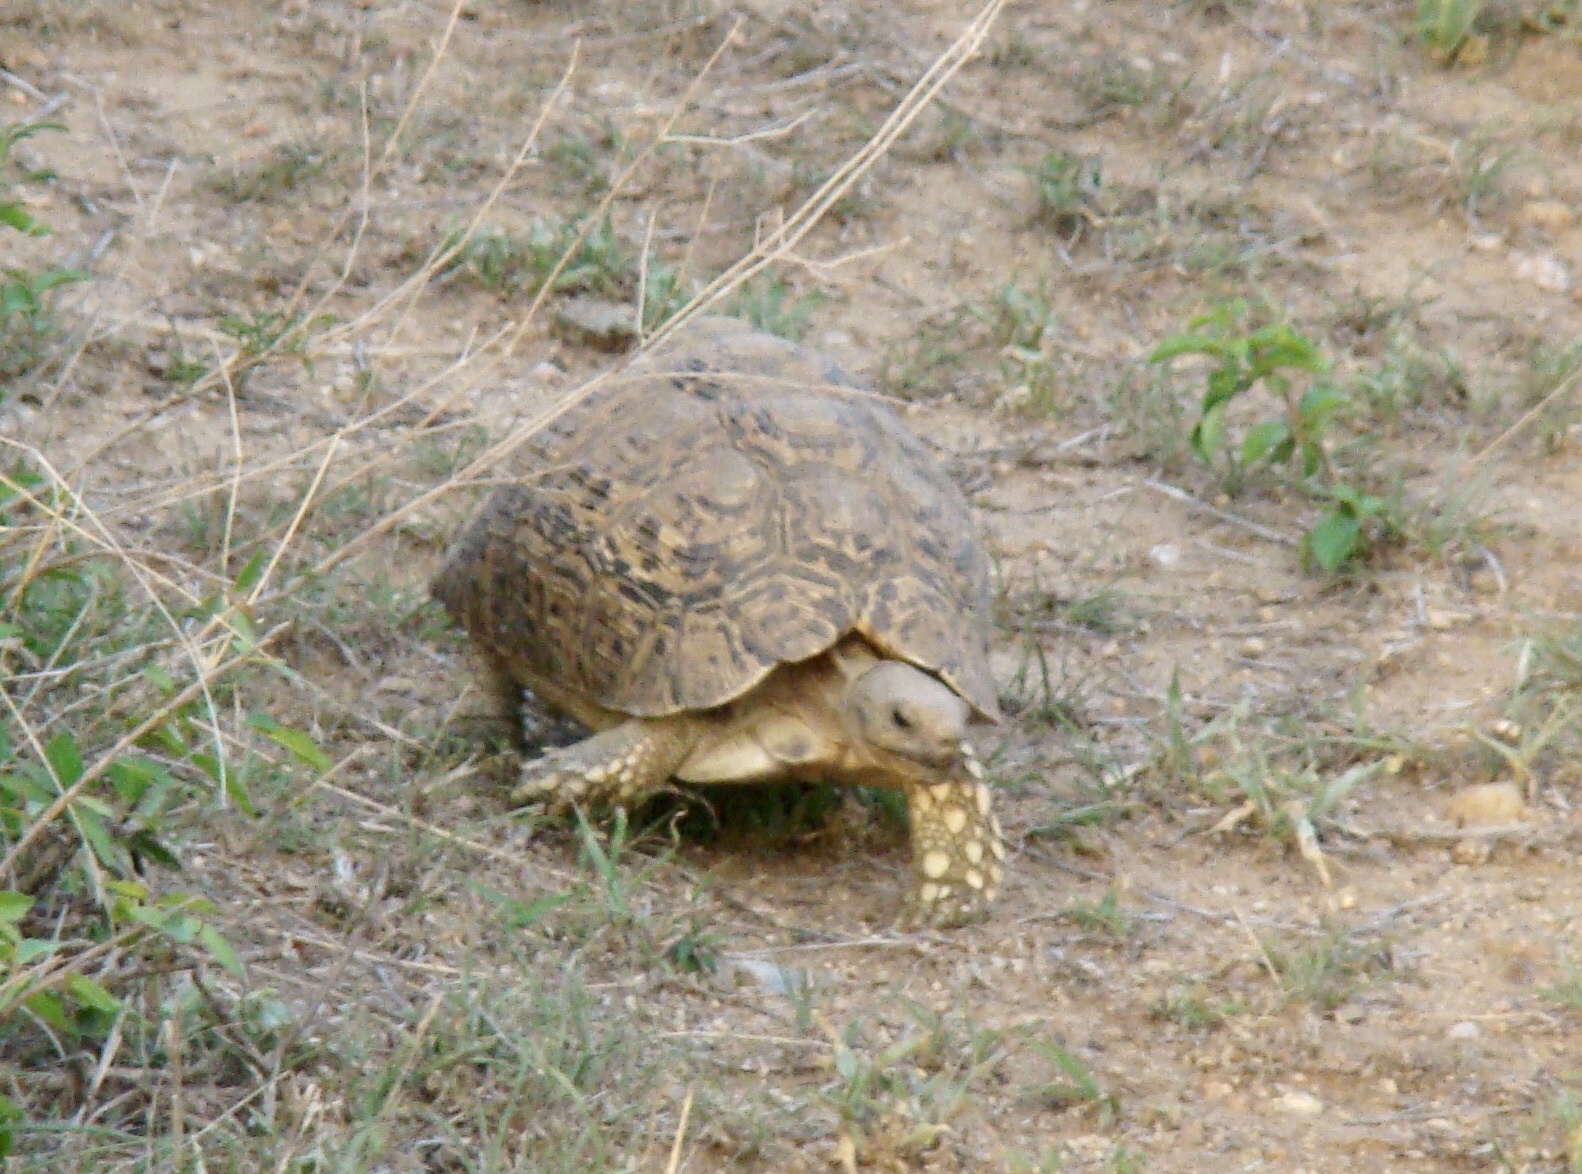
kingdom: Animalia
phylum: Chordata
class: Testudines
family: Testudinidae
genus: Stigmochelys
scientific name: Stigmochelys pardalis
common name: Leopard tortoise
